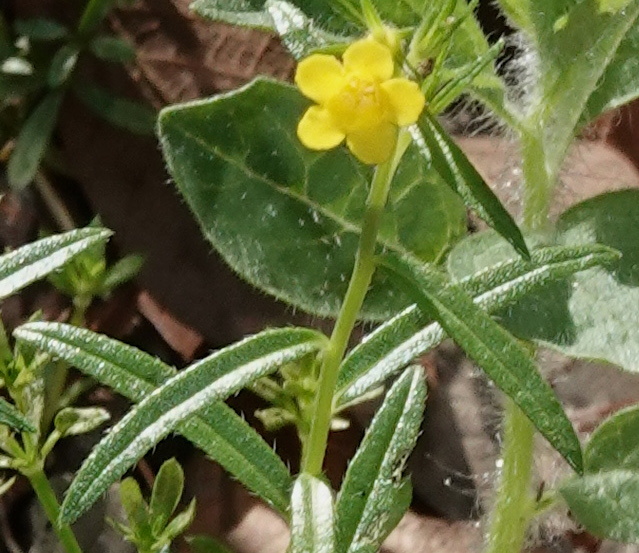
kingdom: Plantae
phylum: Tracheophyta
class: Magnoliopsida
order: Boraginales
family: Boraginaceae
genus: Lithospermum
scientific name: Lithospermum multiflorum
